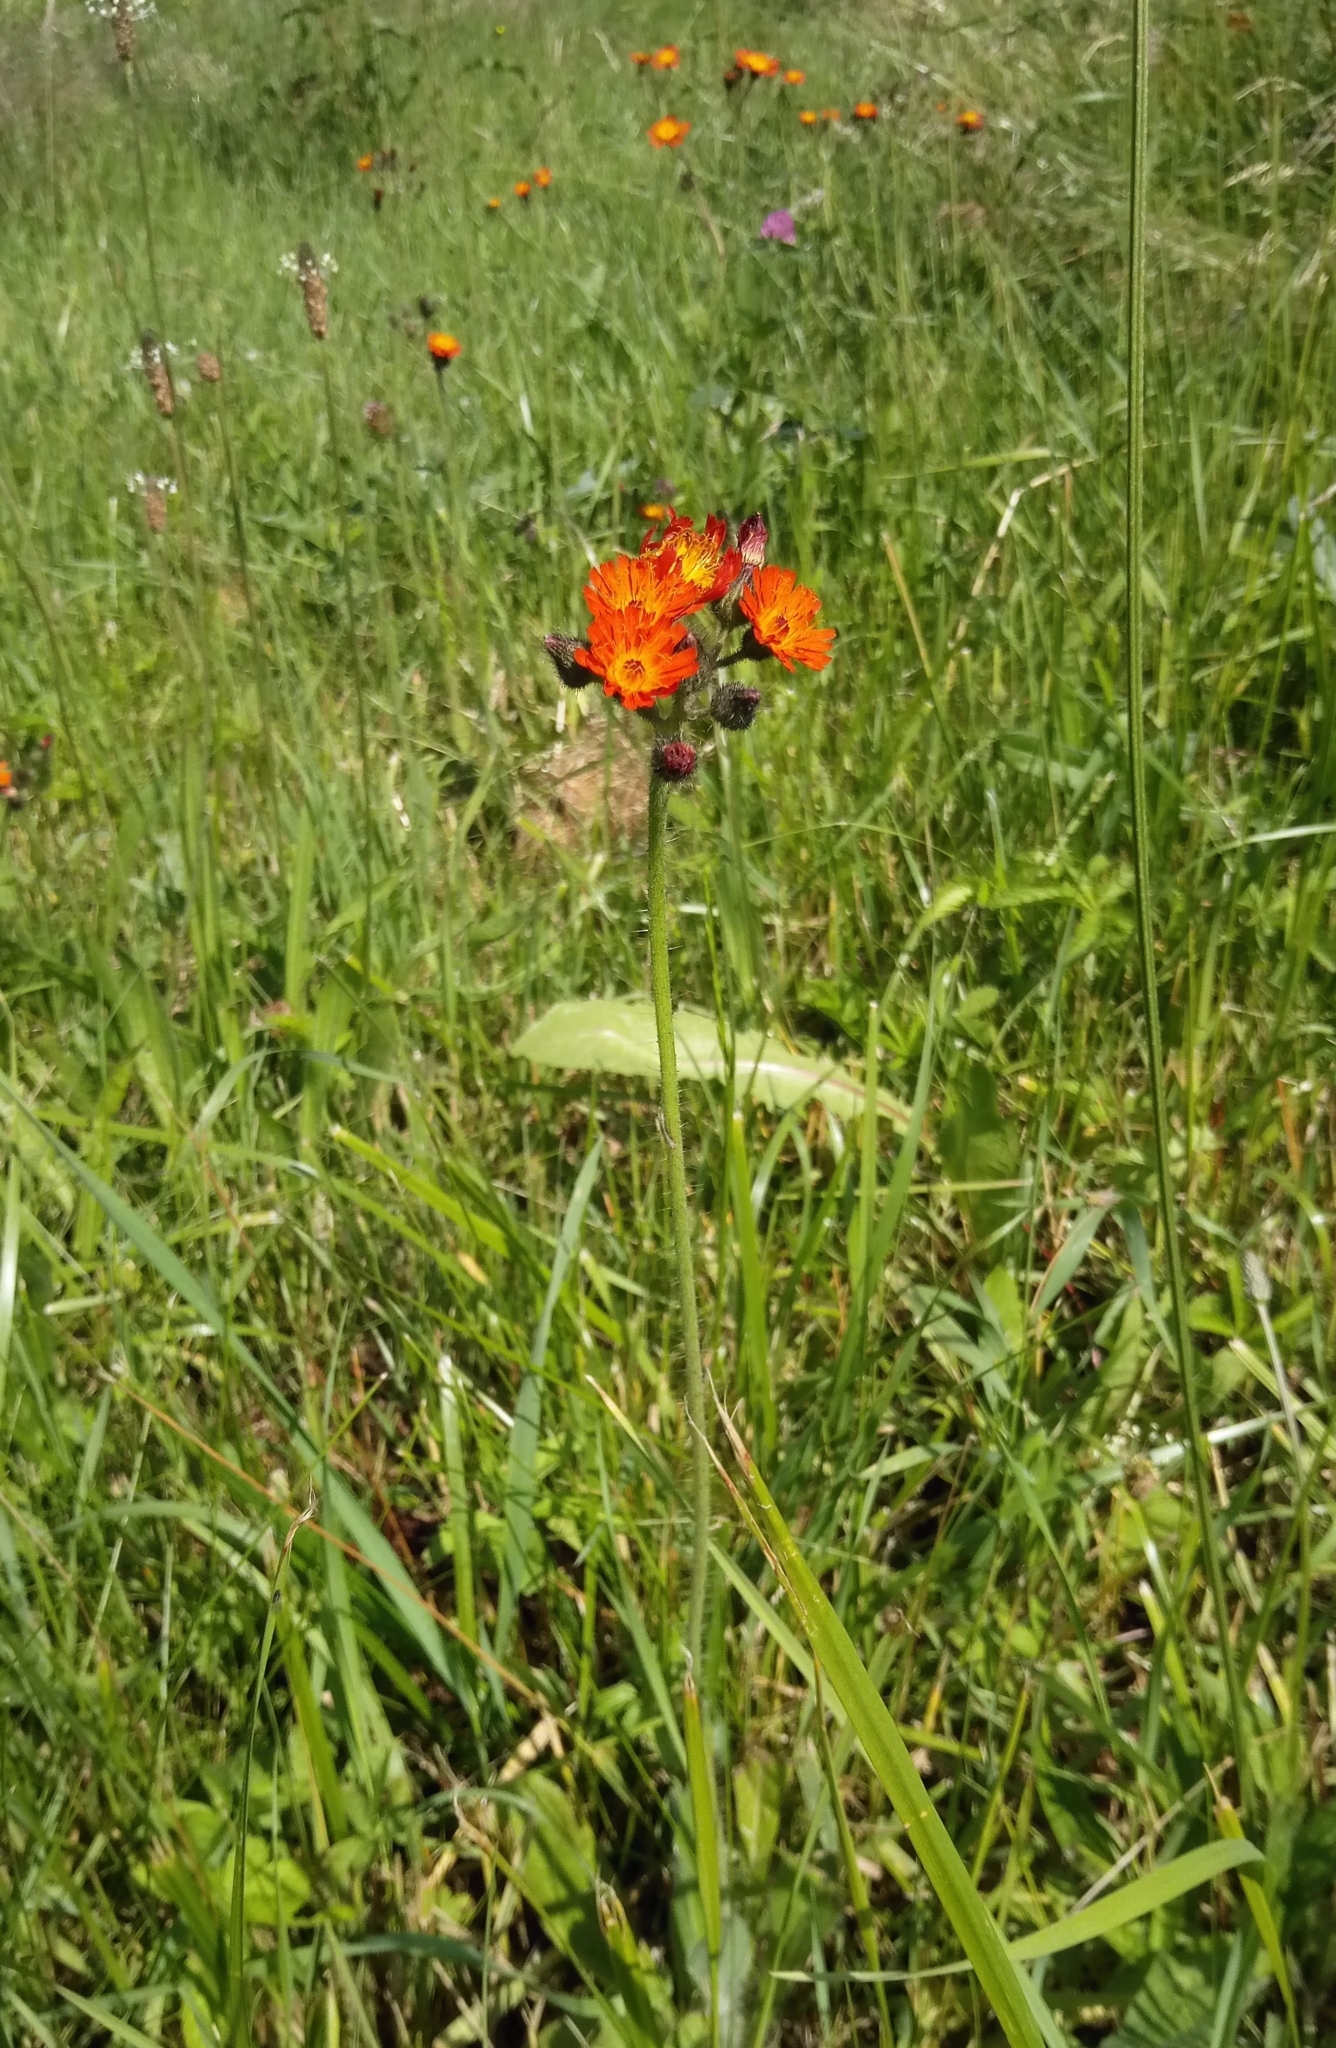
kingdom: Plantae
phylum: Tracheophyta
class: Magnoliopsida
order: Asterales
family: Asteraceae
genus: Pilosella
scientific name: Pilosella aurantiaca
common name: Fox-and-cubs
